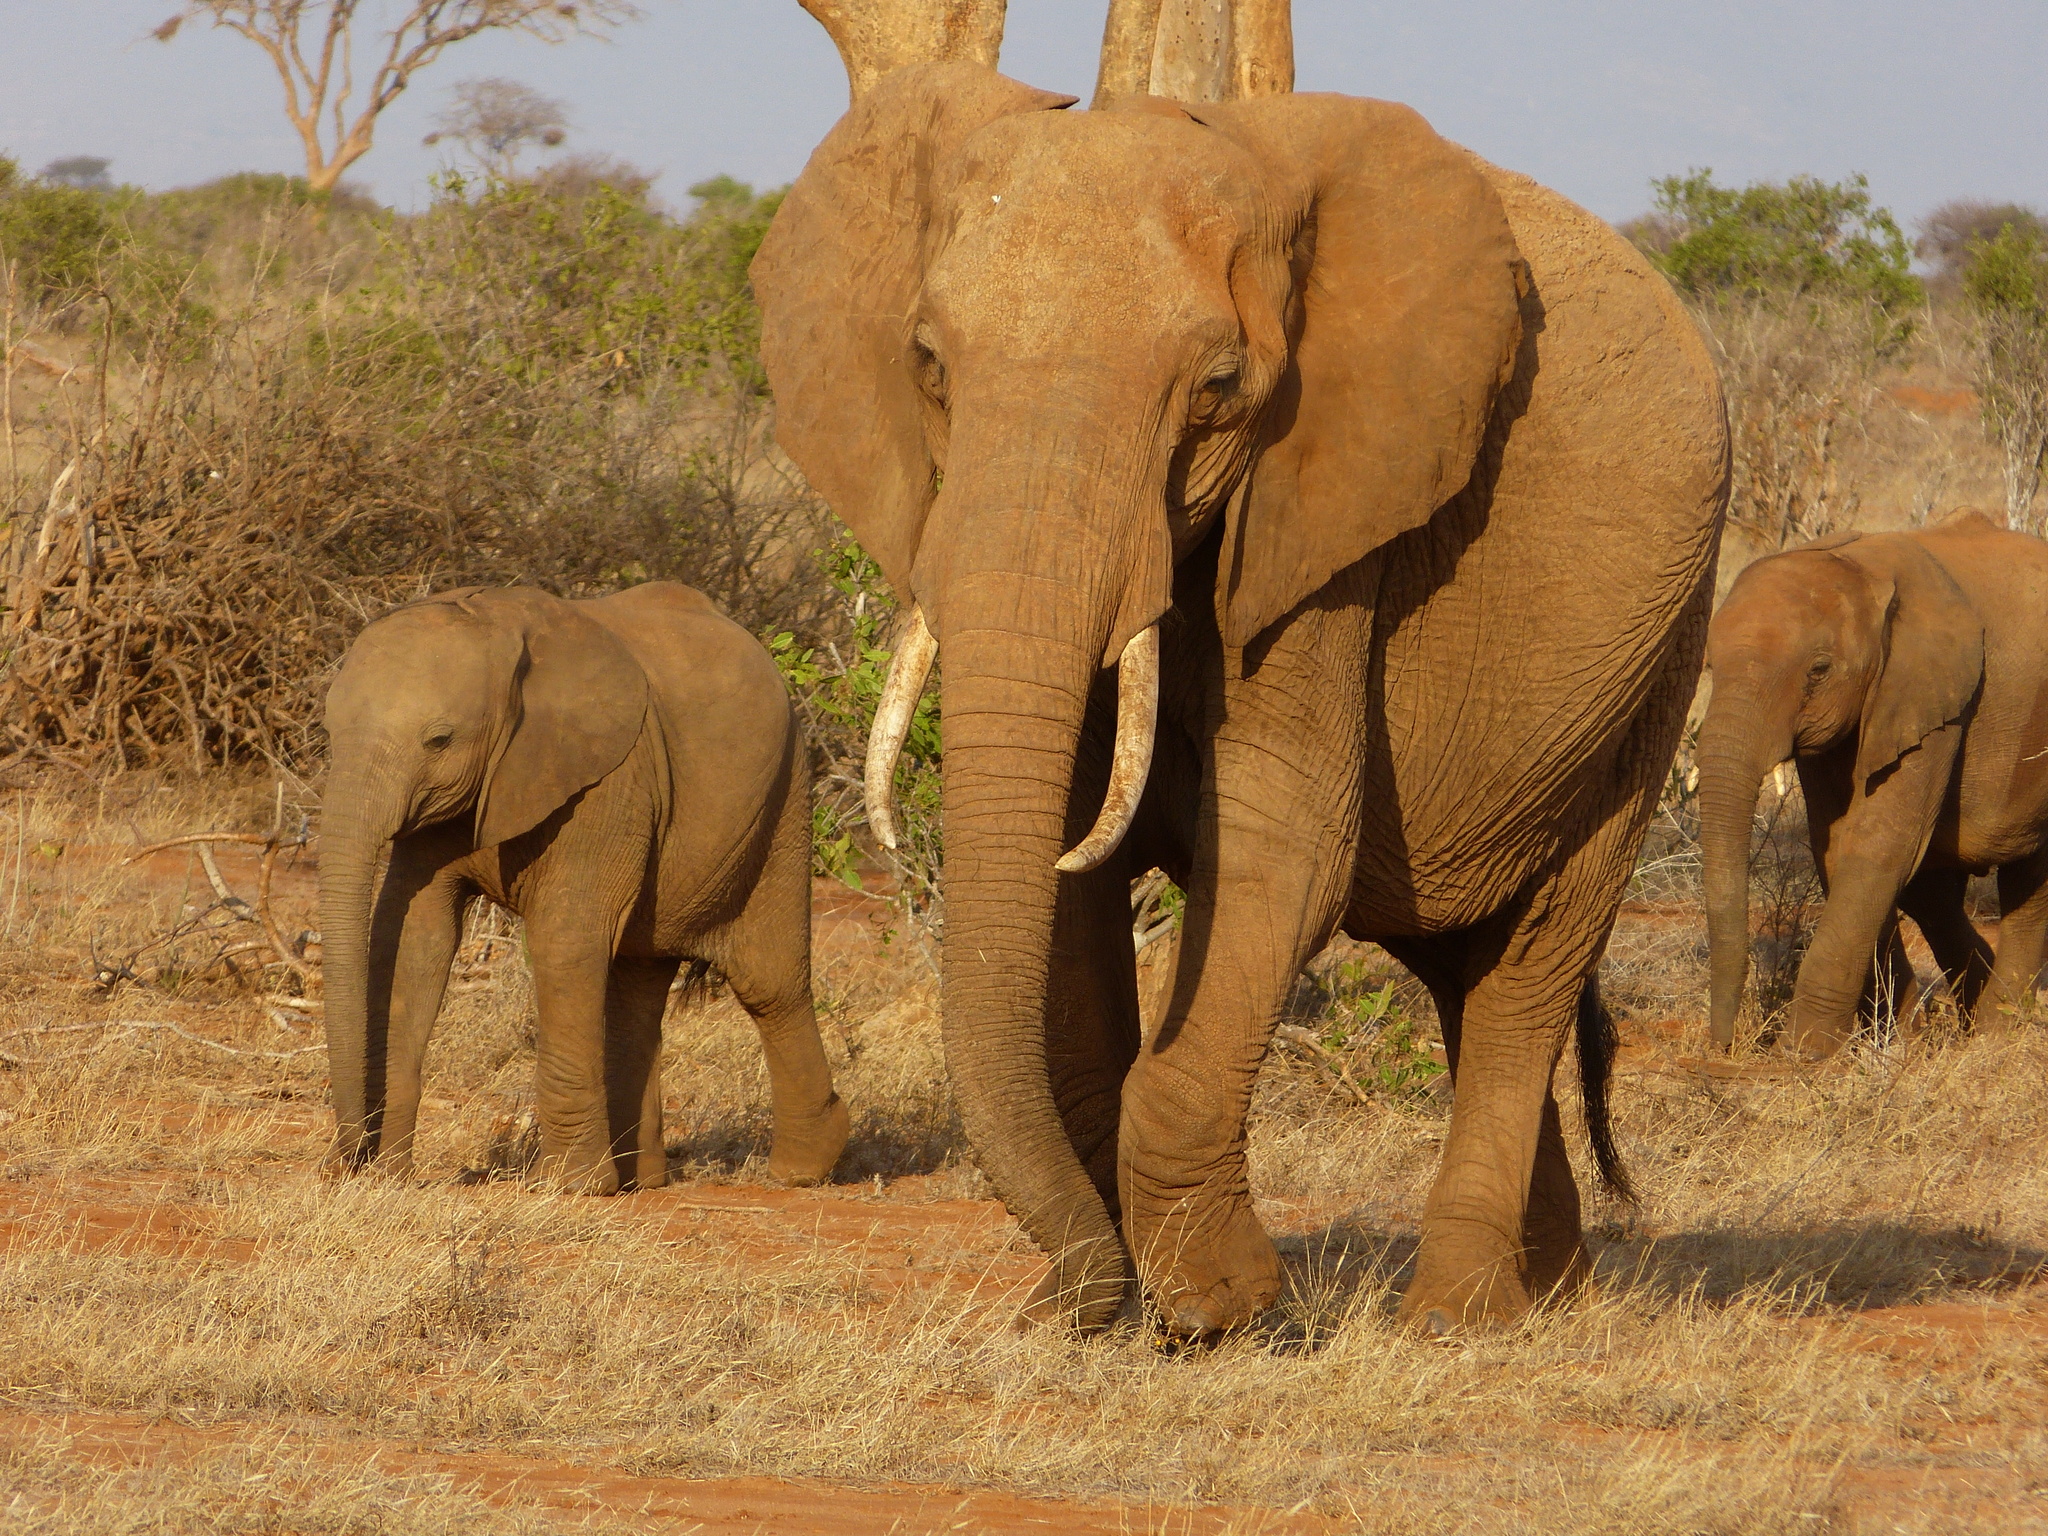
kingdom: Animalia
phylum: Chordata
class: Mammalia
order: Proboscidea
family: Elephantidae
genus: Loxodonta
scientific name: Loxodonta africana
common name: African elephant
